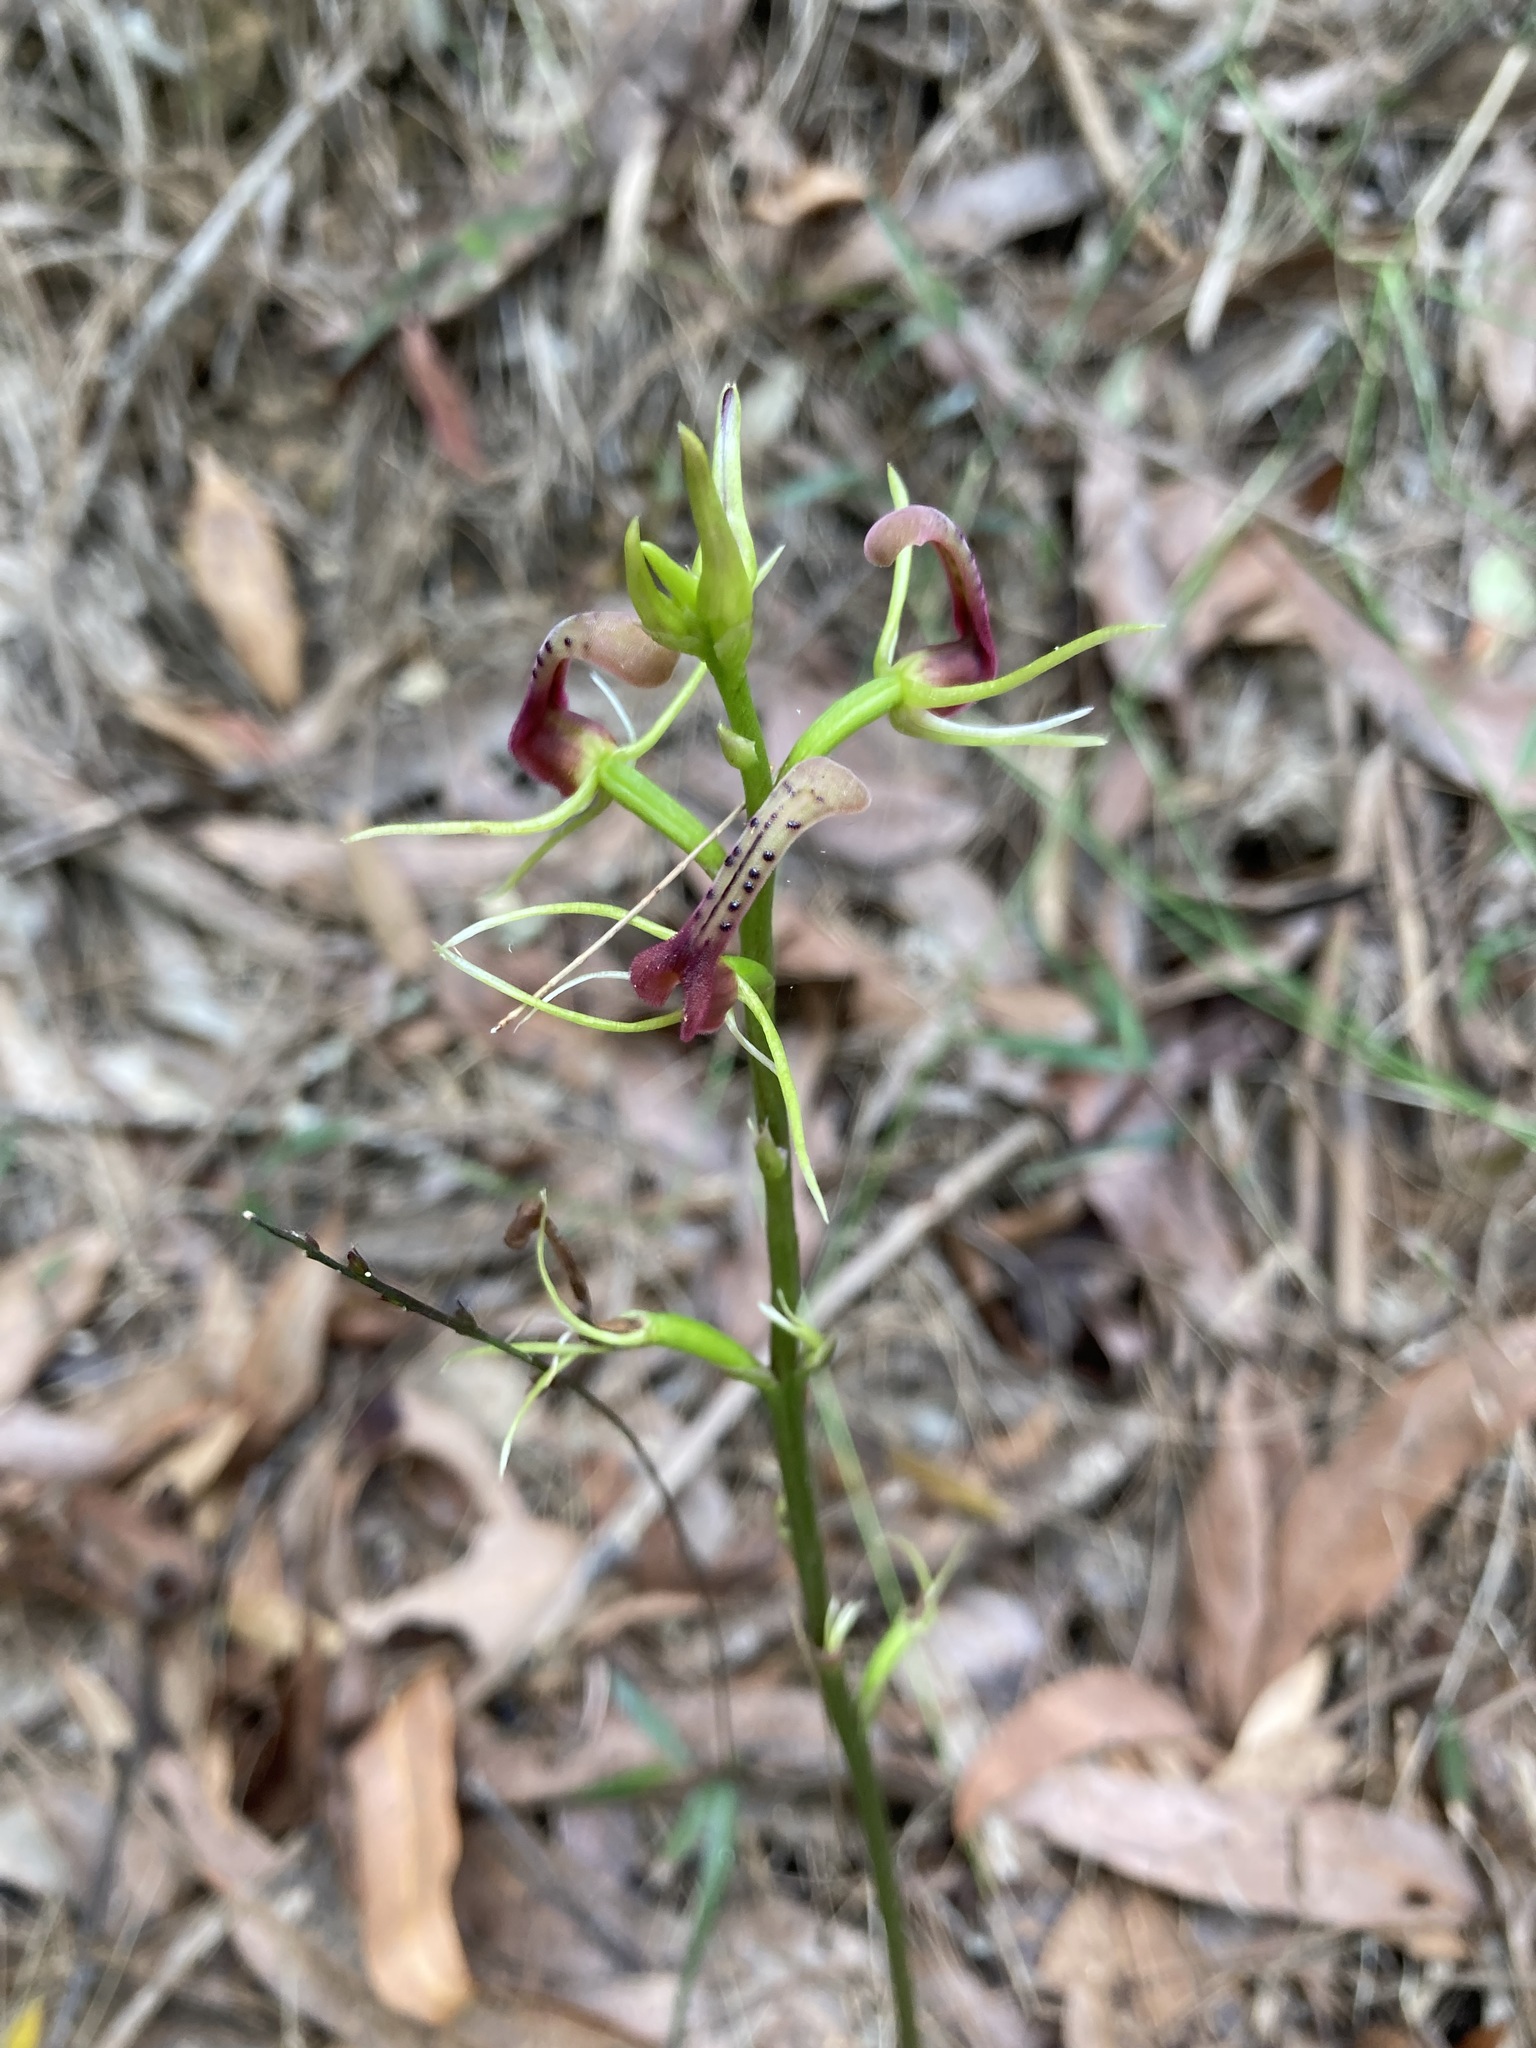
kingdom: Plantae
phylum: Tracheophyta
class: Liliopsida
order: Asparagales
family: Orchidaceae
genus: Cryptostylis
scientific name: Cryptostylis leptochila
